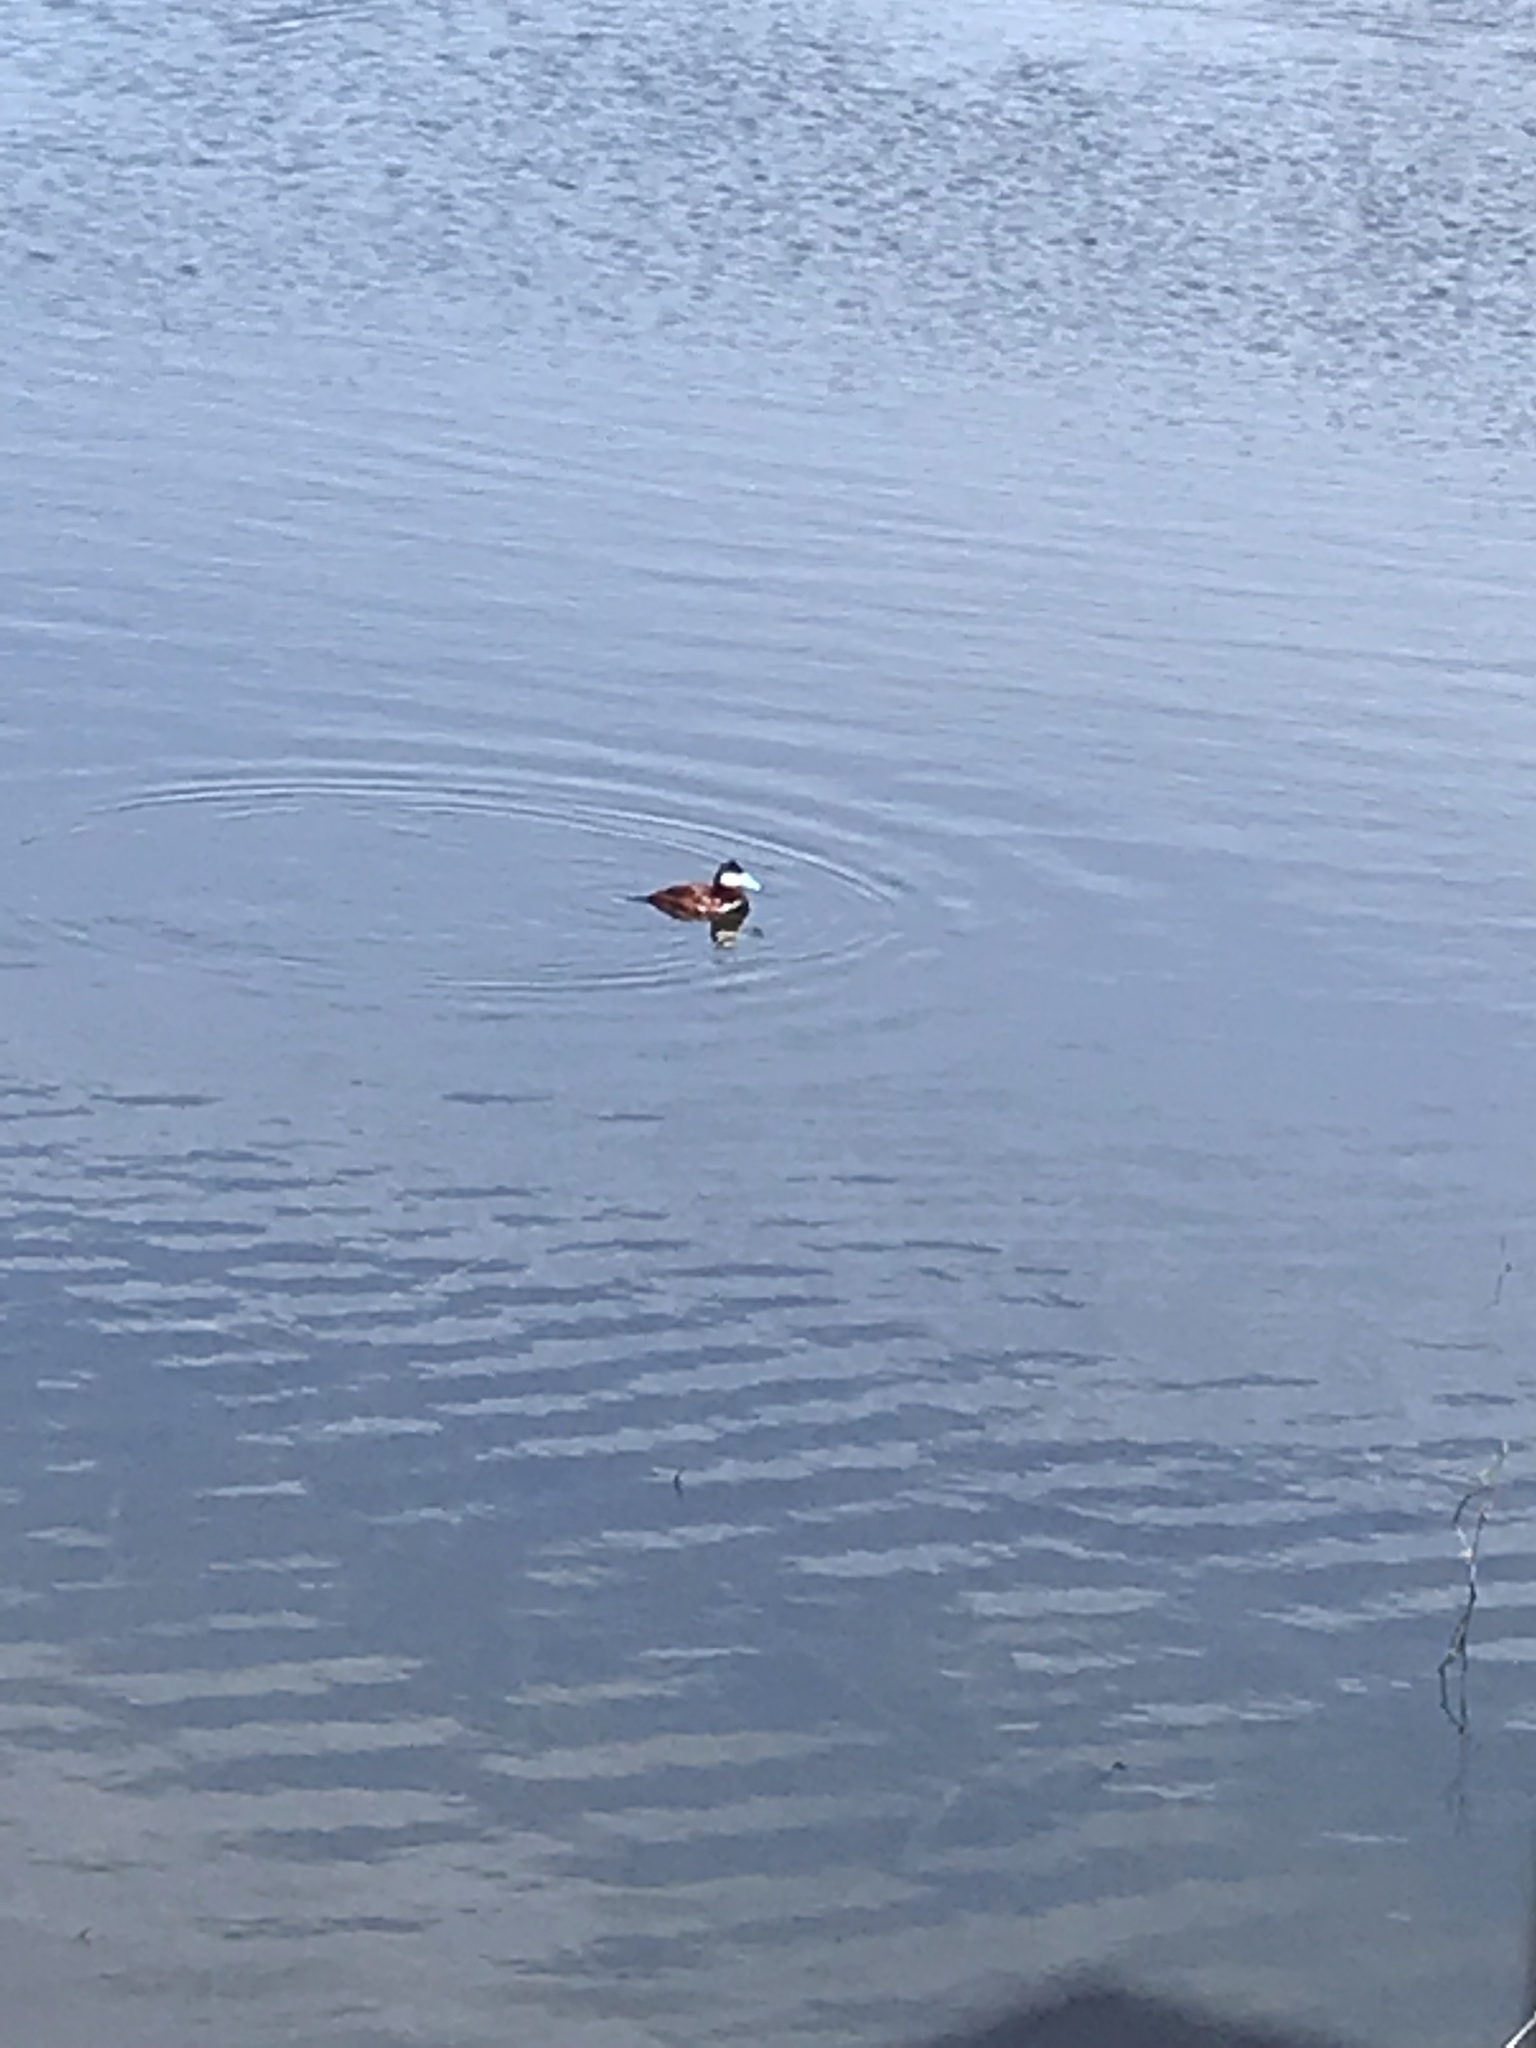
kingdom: Animalia
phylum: Chordata
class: Aves
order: Anseriformes
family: Anatidae
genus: Oxyura
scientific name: Oxyura jamaicensis
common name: Ruddy duck
